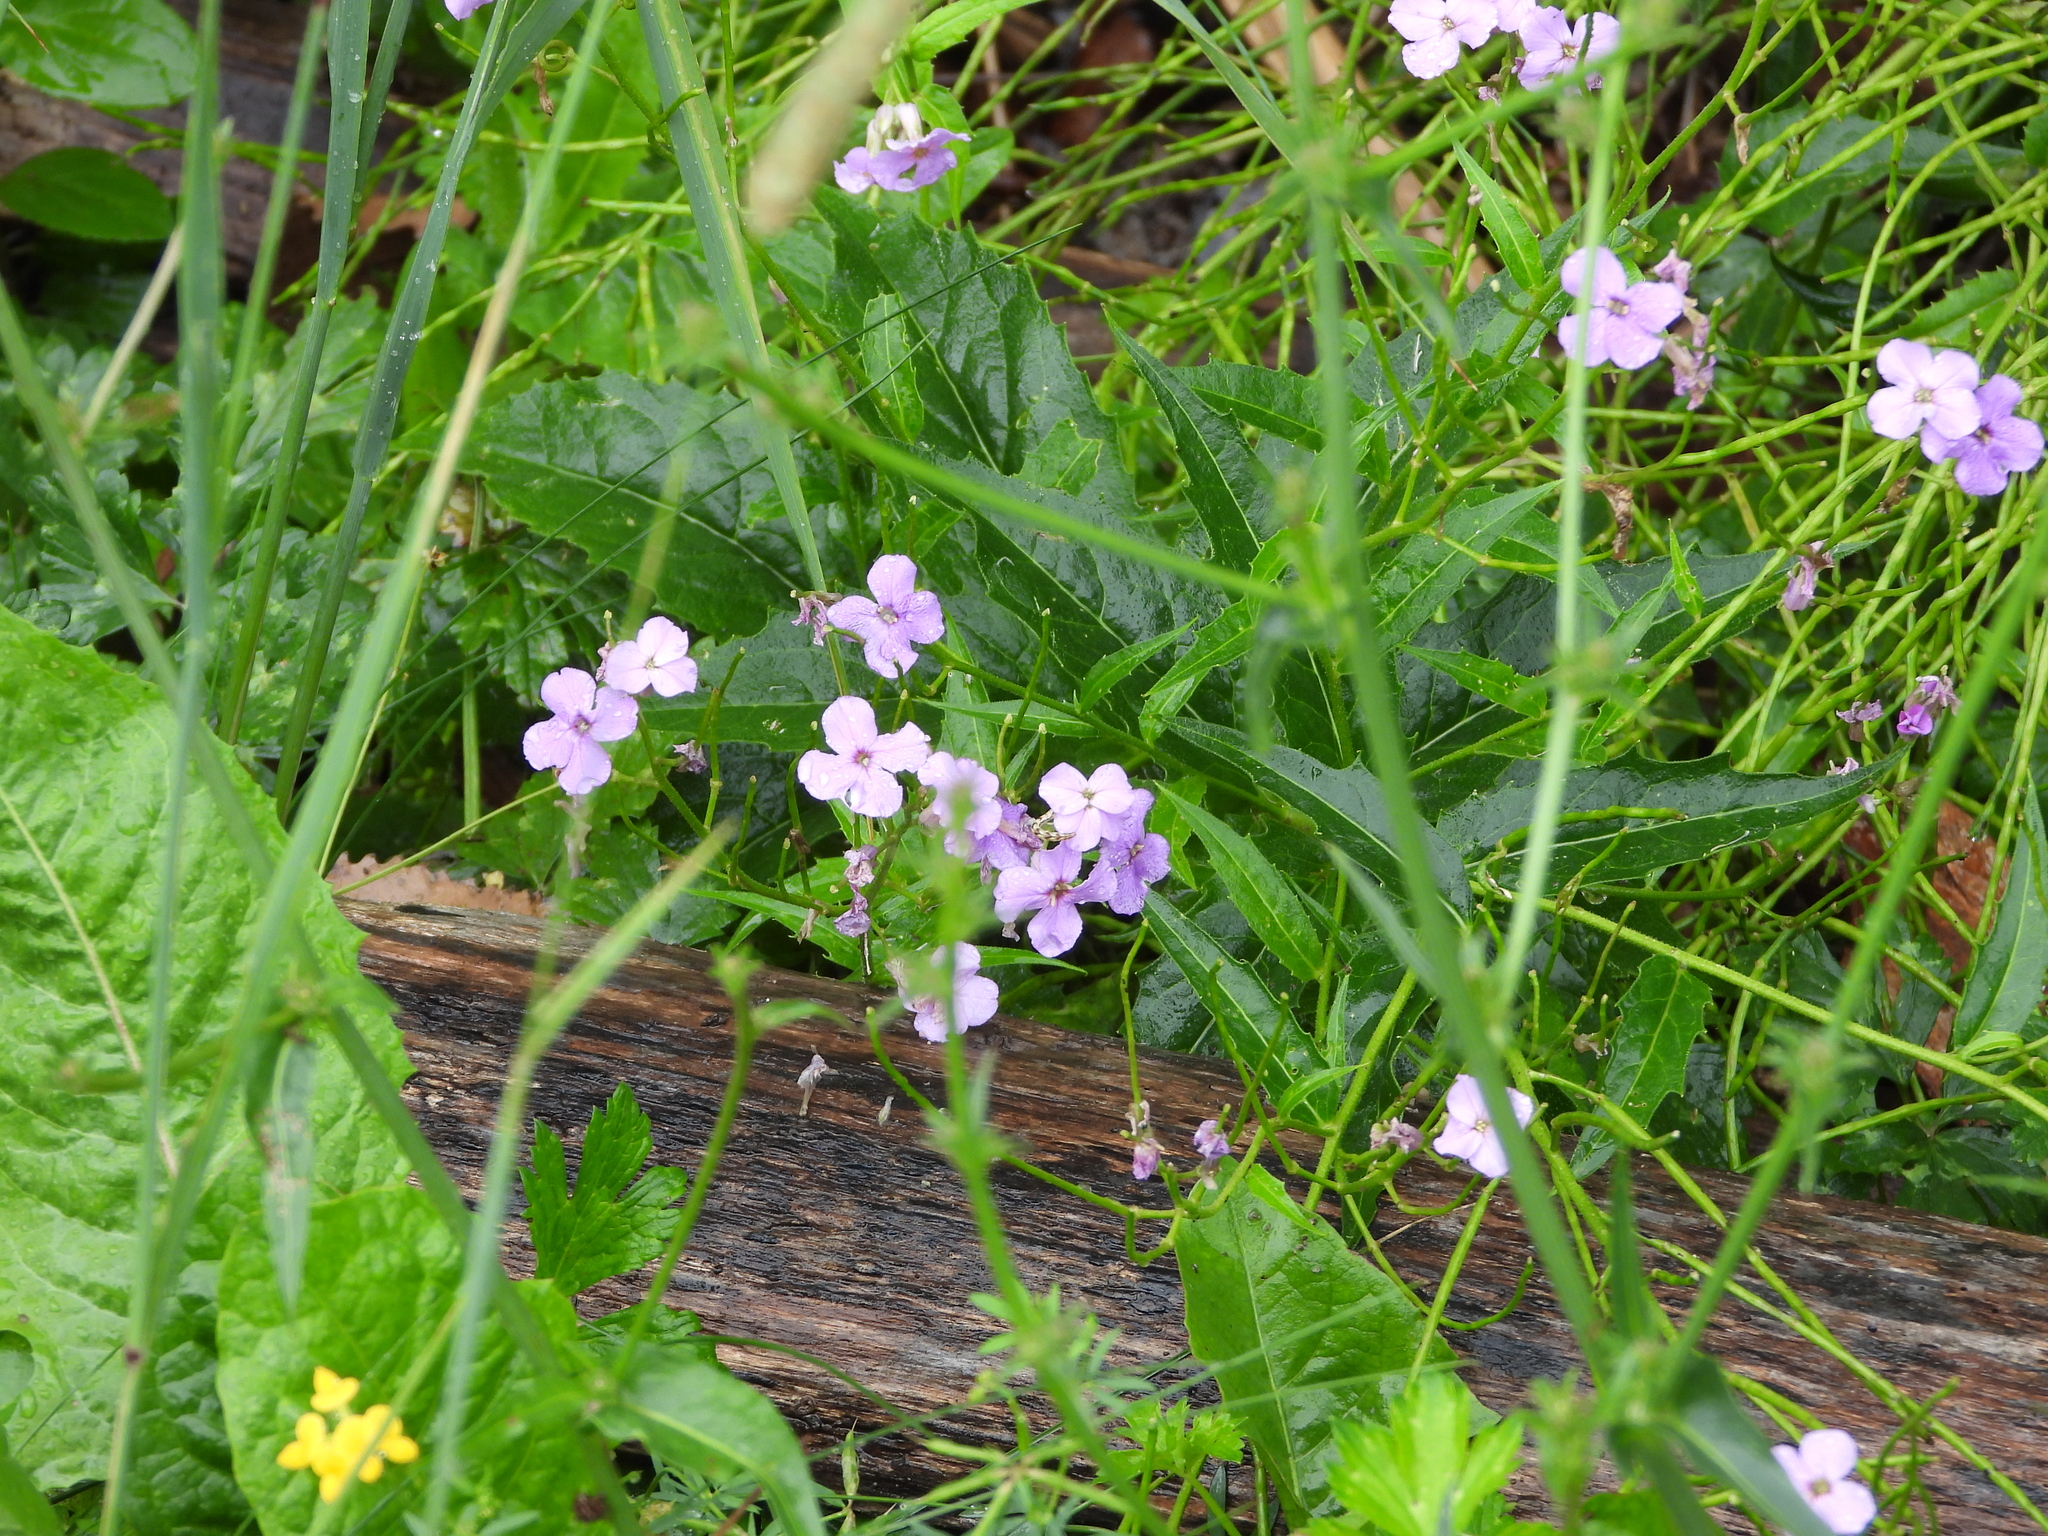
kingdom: Plantae
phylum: Tracheophyta
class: Magnoliopsida
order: Brassicales
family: Brassicaceae
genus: Hesperis
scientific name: Hesperis matronalis
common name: Dame's-violet
